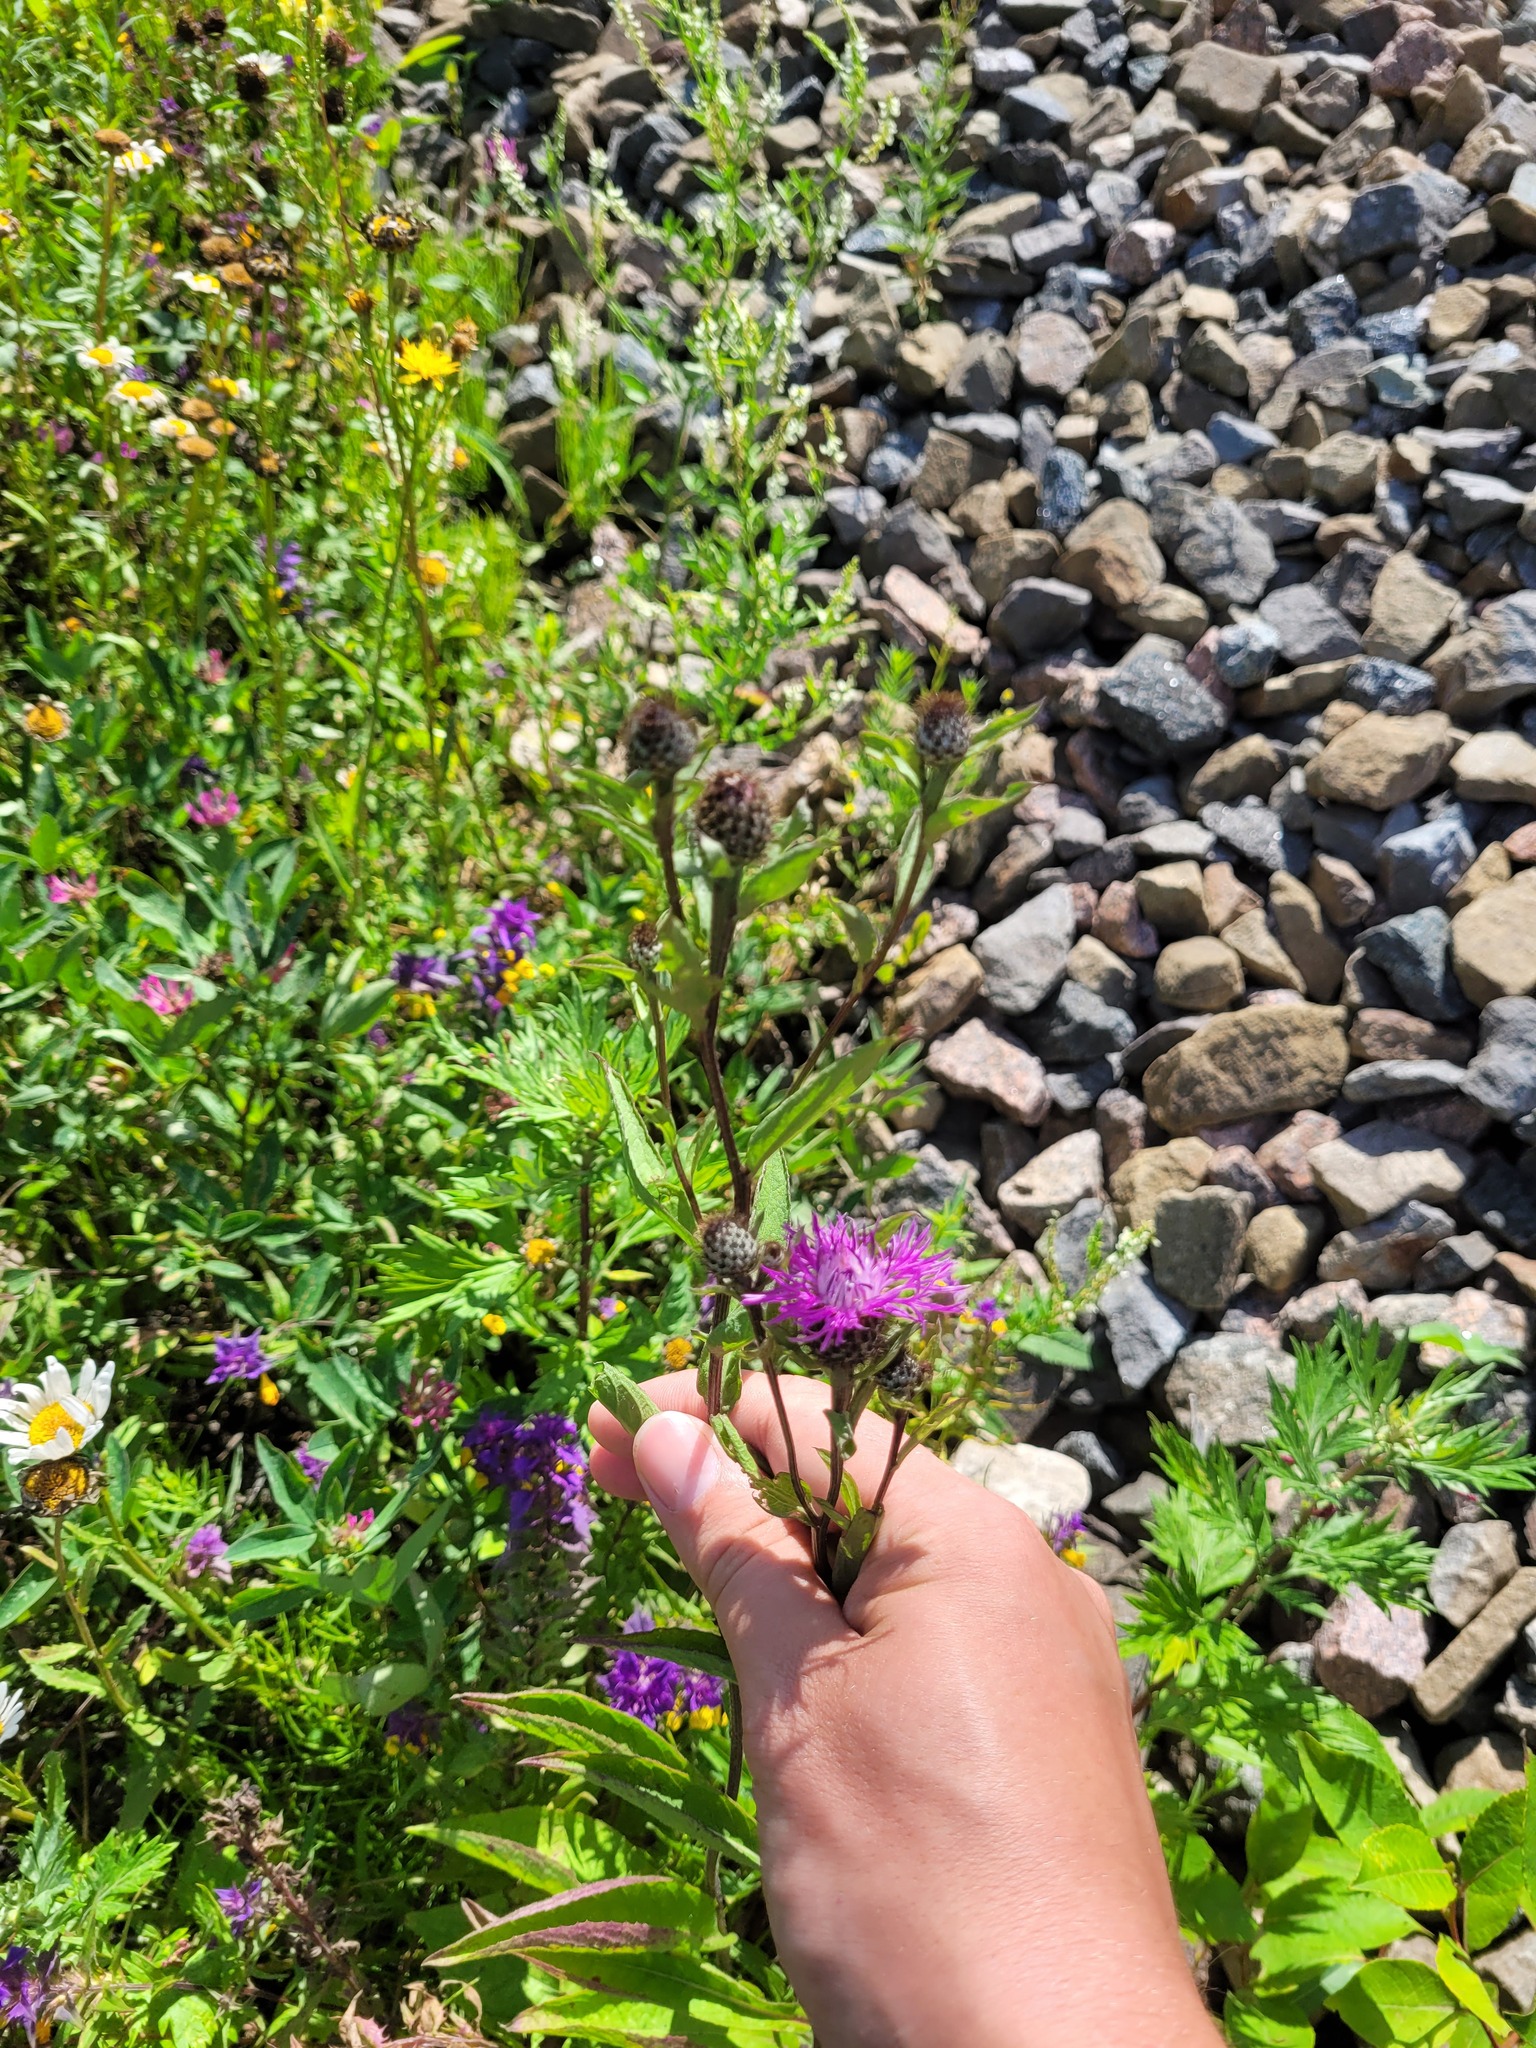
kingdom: Plantae
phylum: Tracheophyta
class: Magnoliopsida
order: Asterales
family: Asteraceae
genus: Centaurea
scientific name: Centaurea phrygia
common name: Wig knapweed
